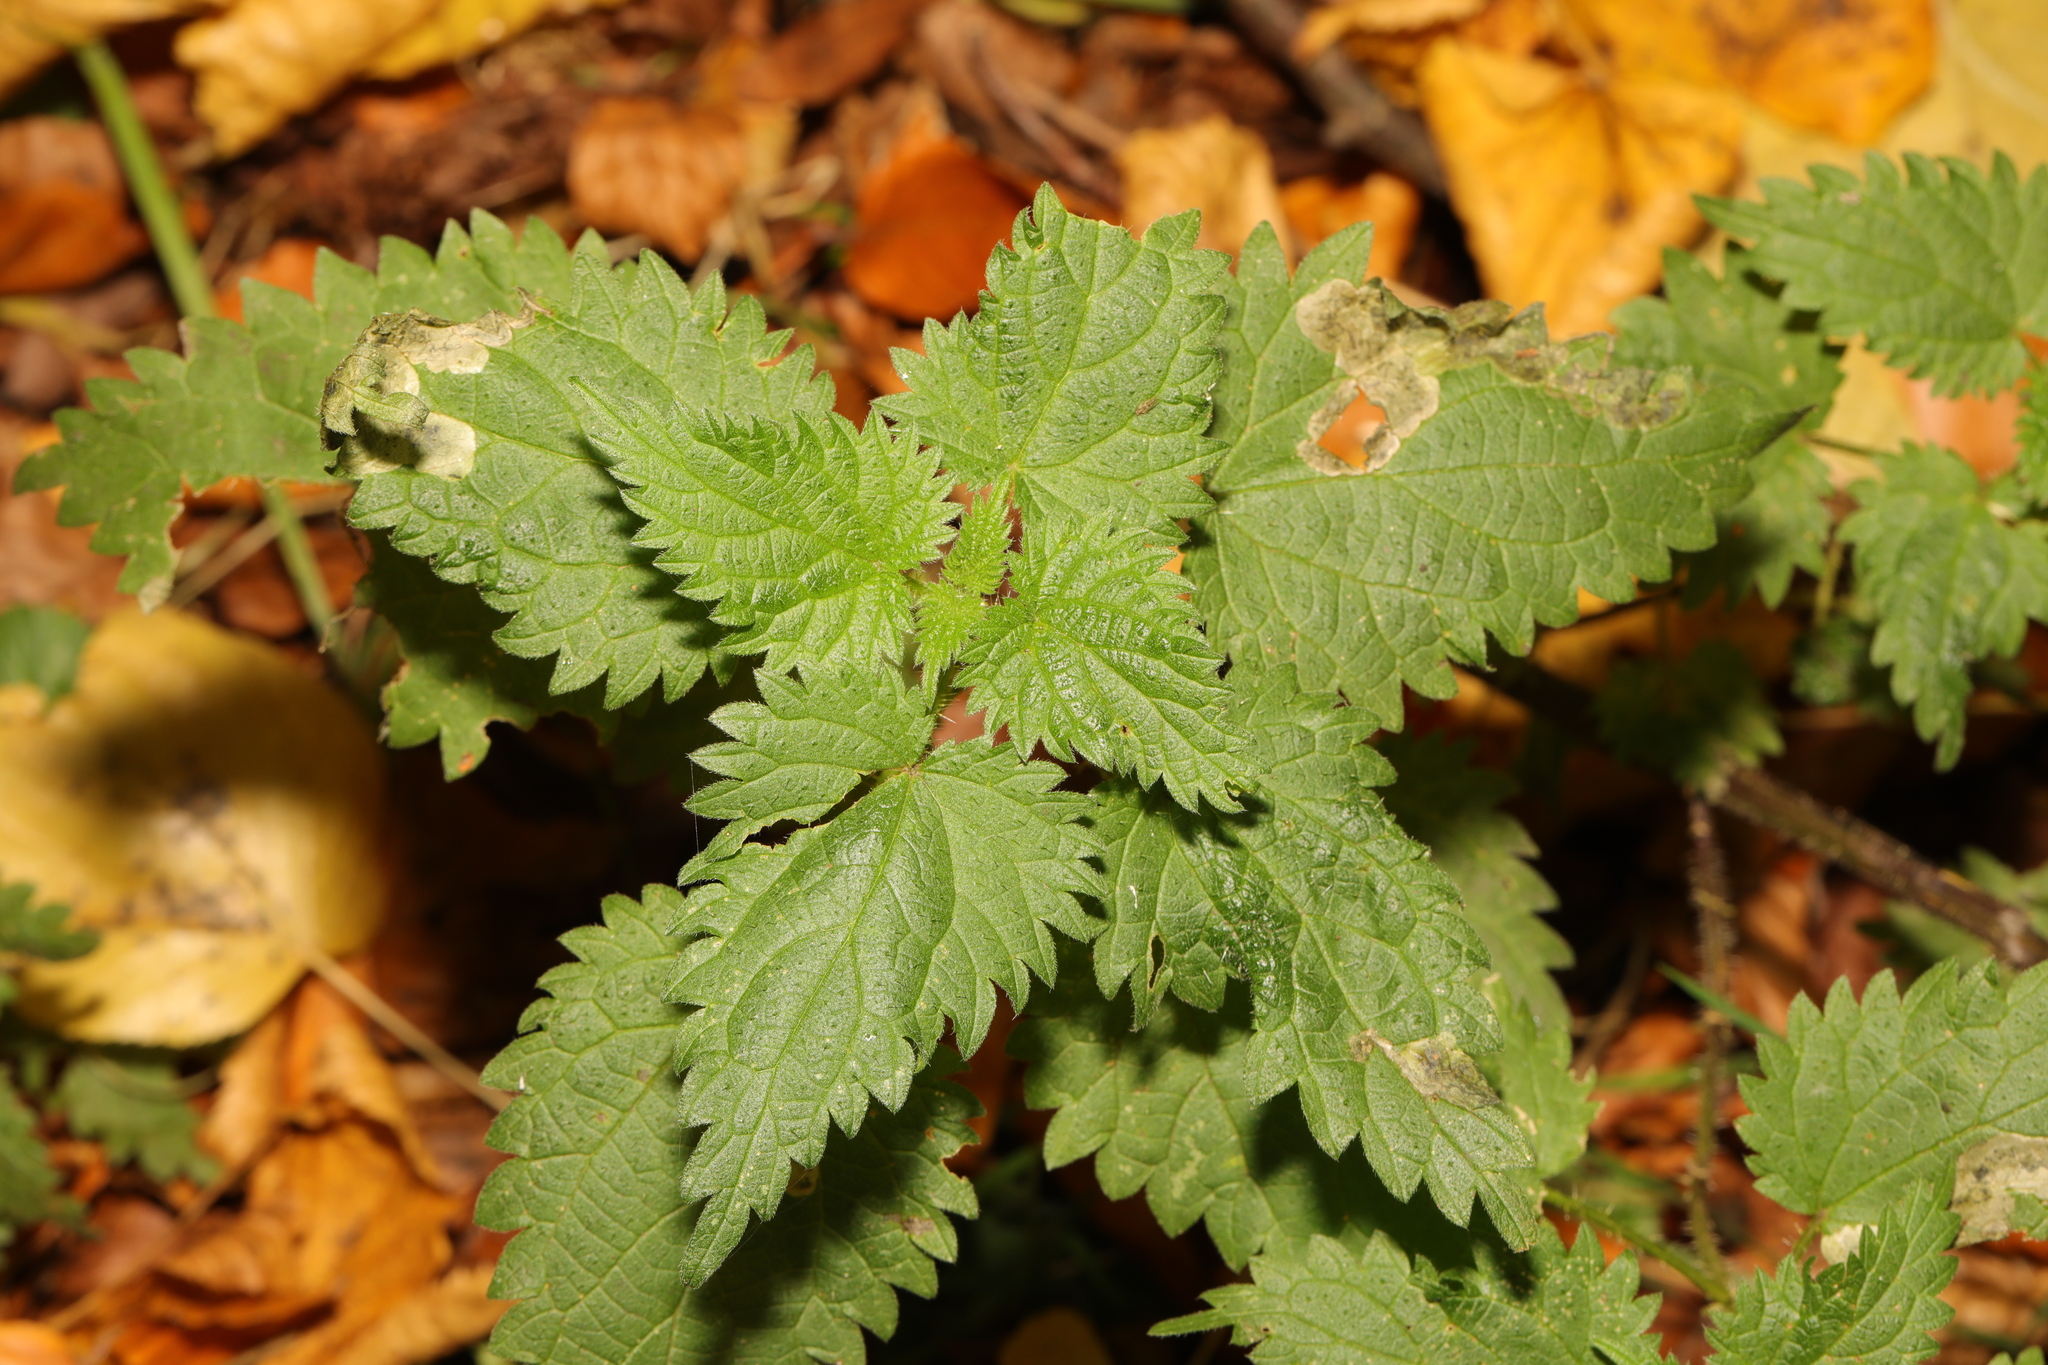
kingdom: Plantae
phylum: Tracheophyta
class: Magnoliopsida
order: Rosales
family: Urticaceae
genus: Urtica
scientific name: Urtica dioica
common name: Common nettle
